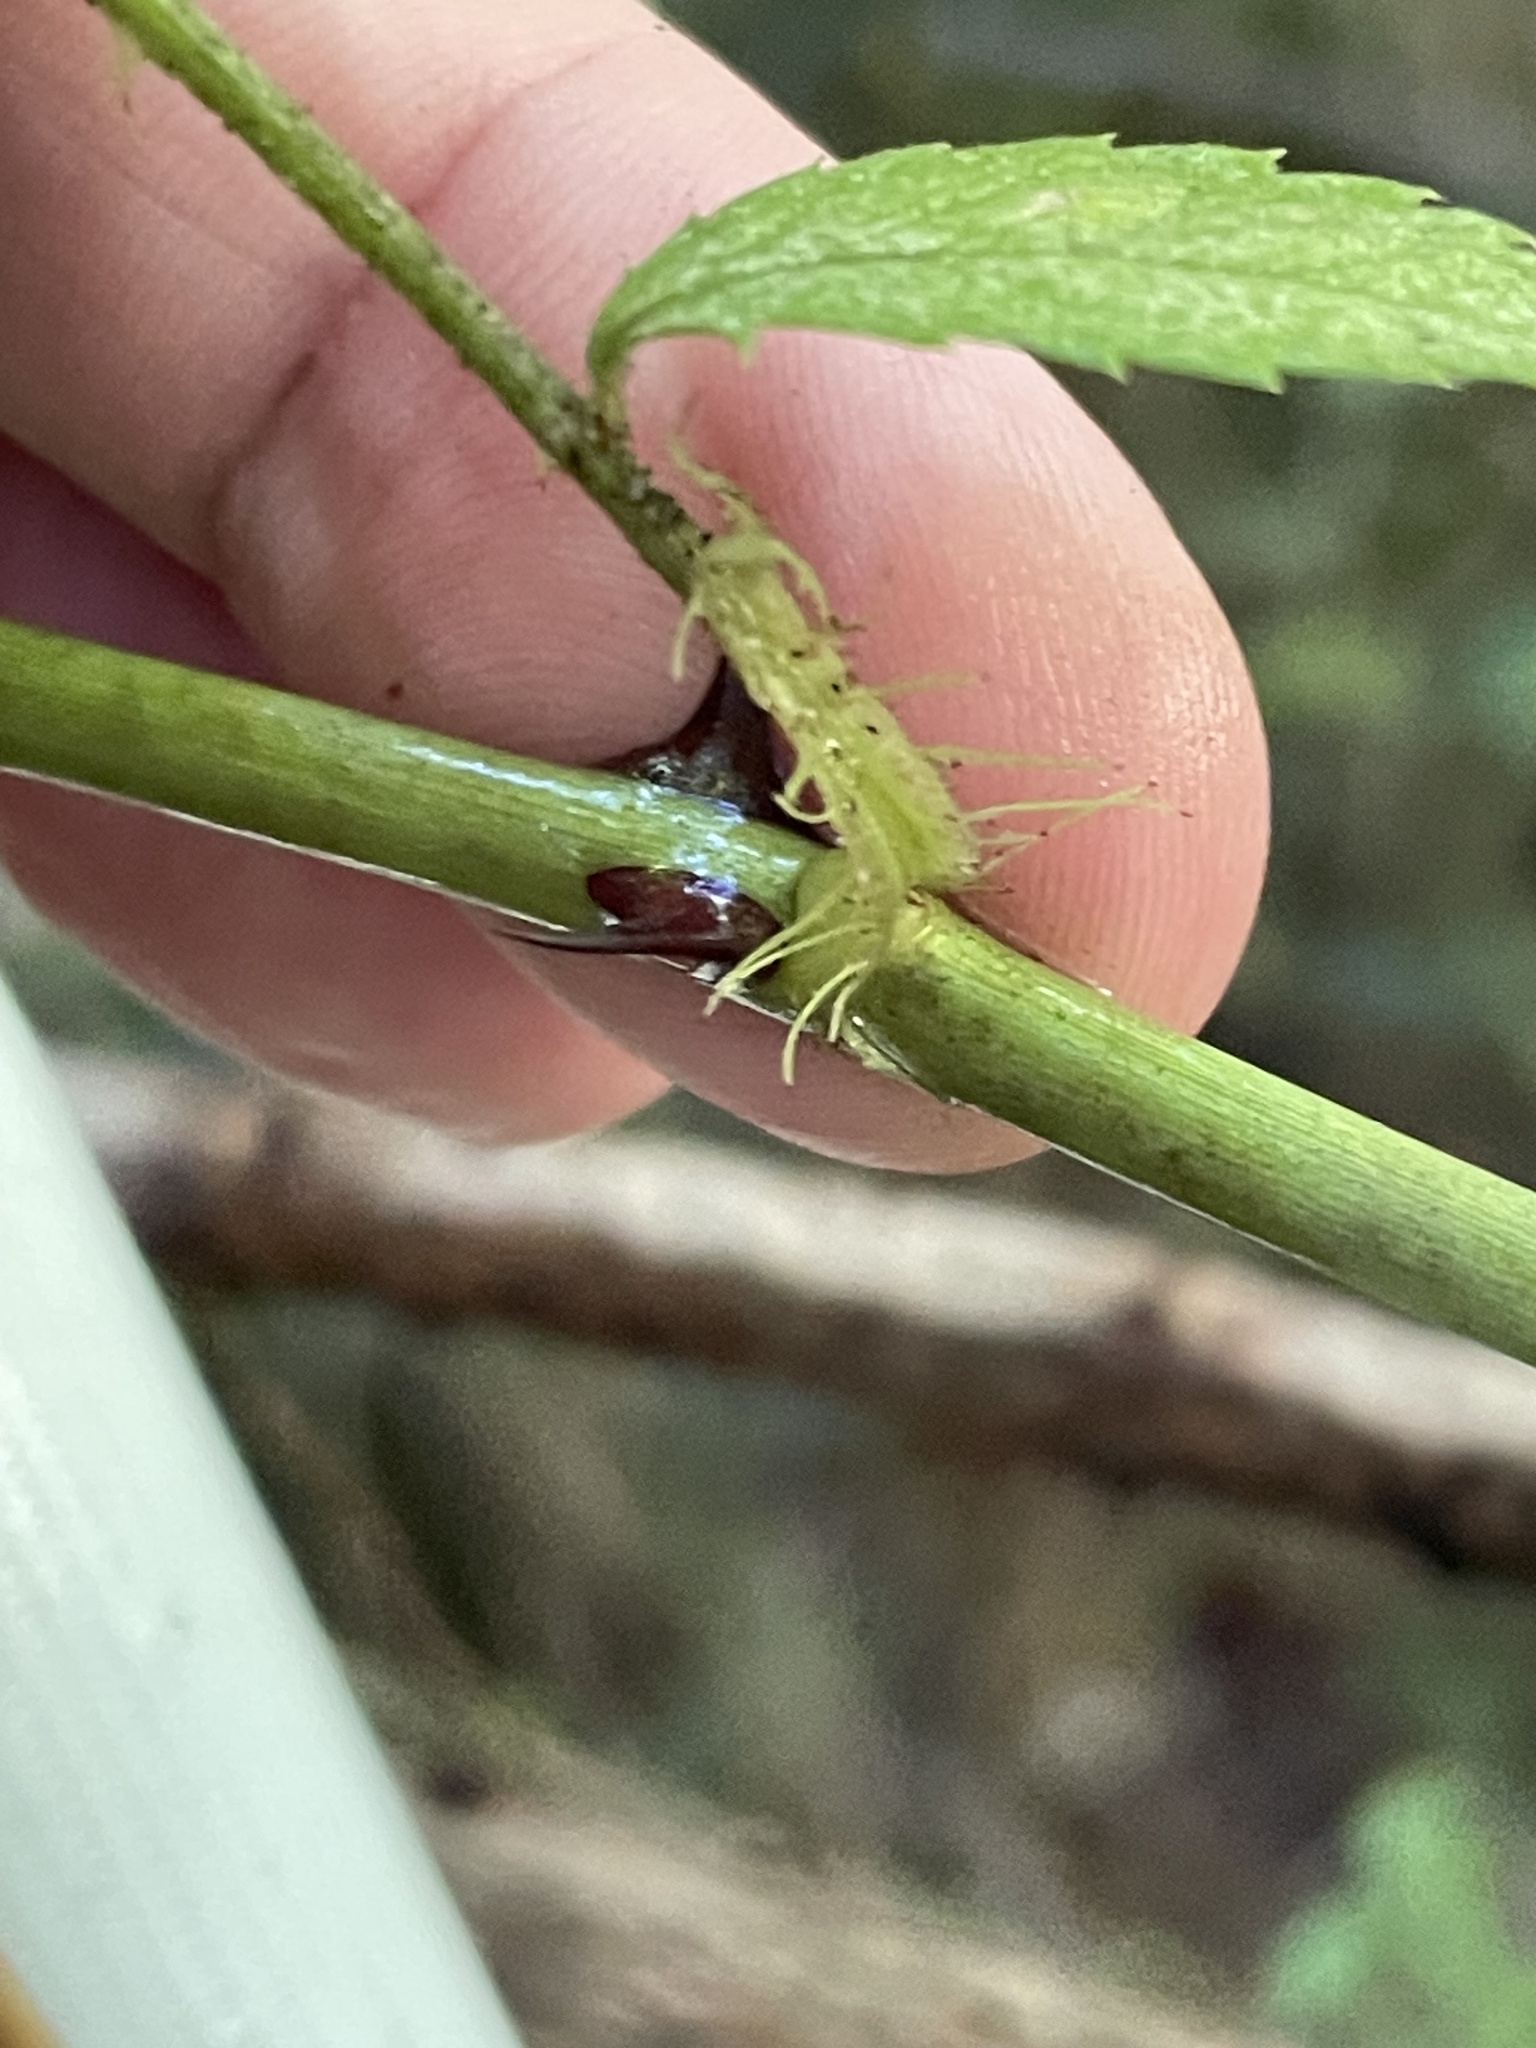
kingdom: Plantae
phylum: Tracheophyta
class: Magnoliopsida
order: Rosales
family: Rosaceae
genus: Rosa
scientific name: Rosa multiflora
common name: Multiflora rose
